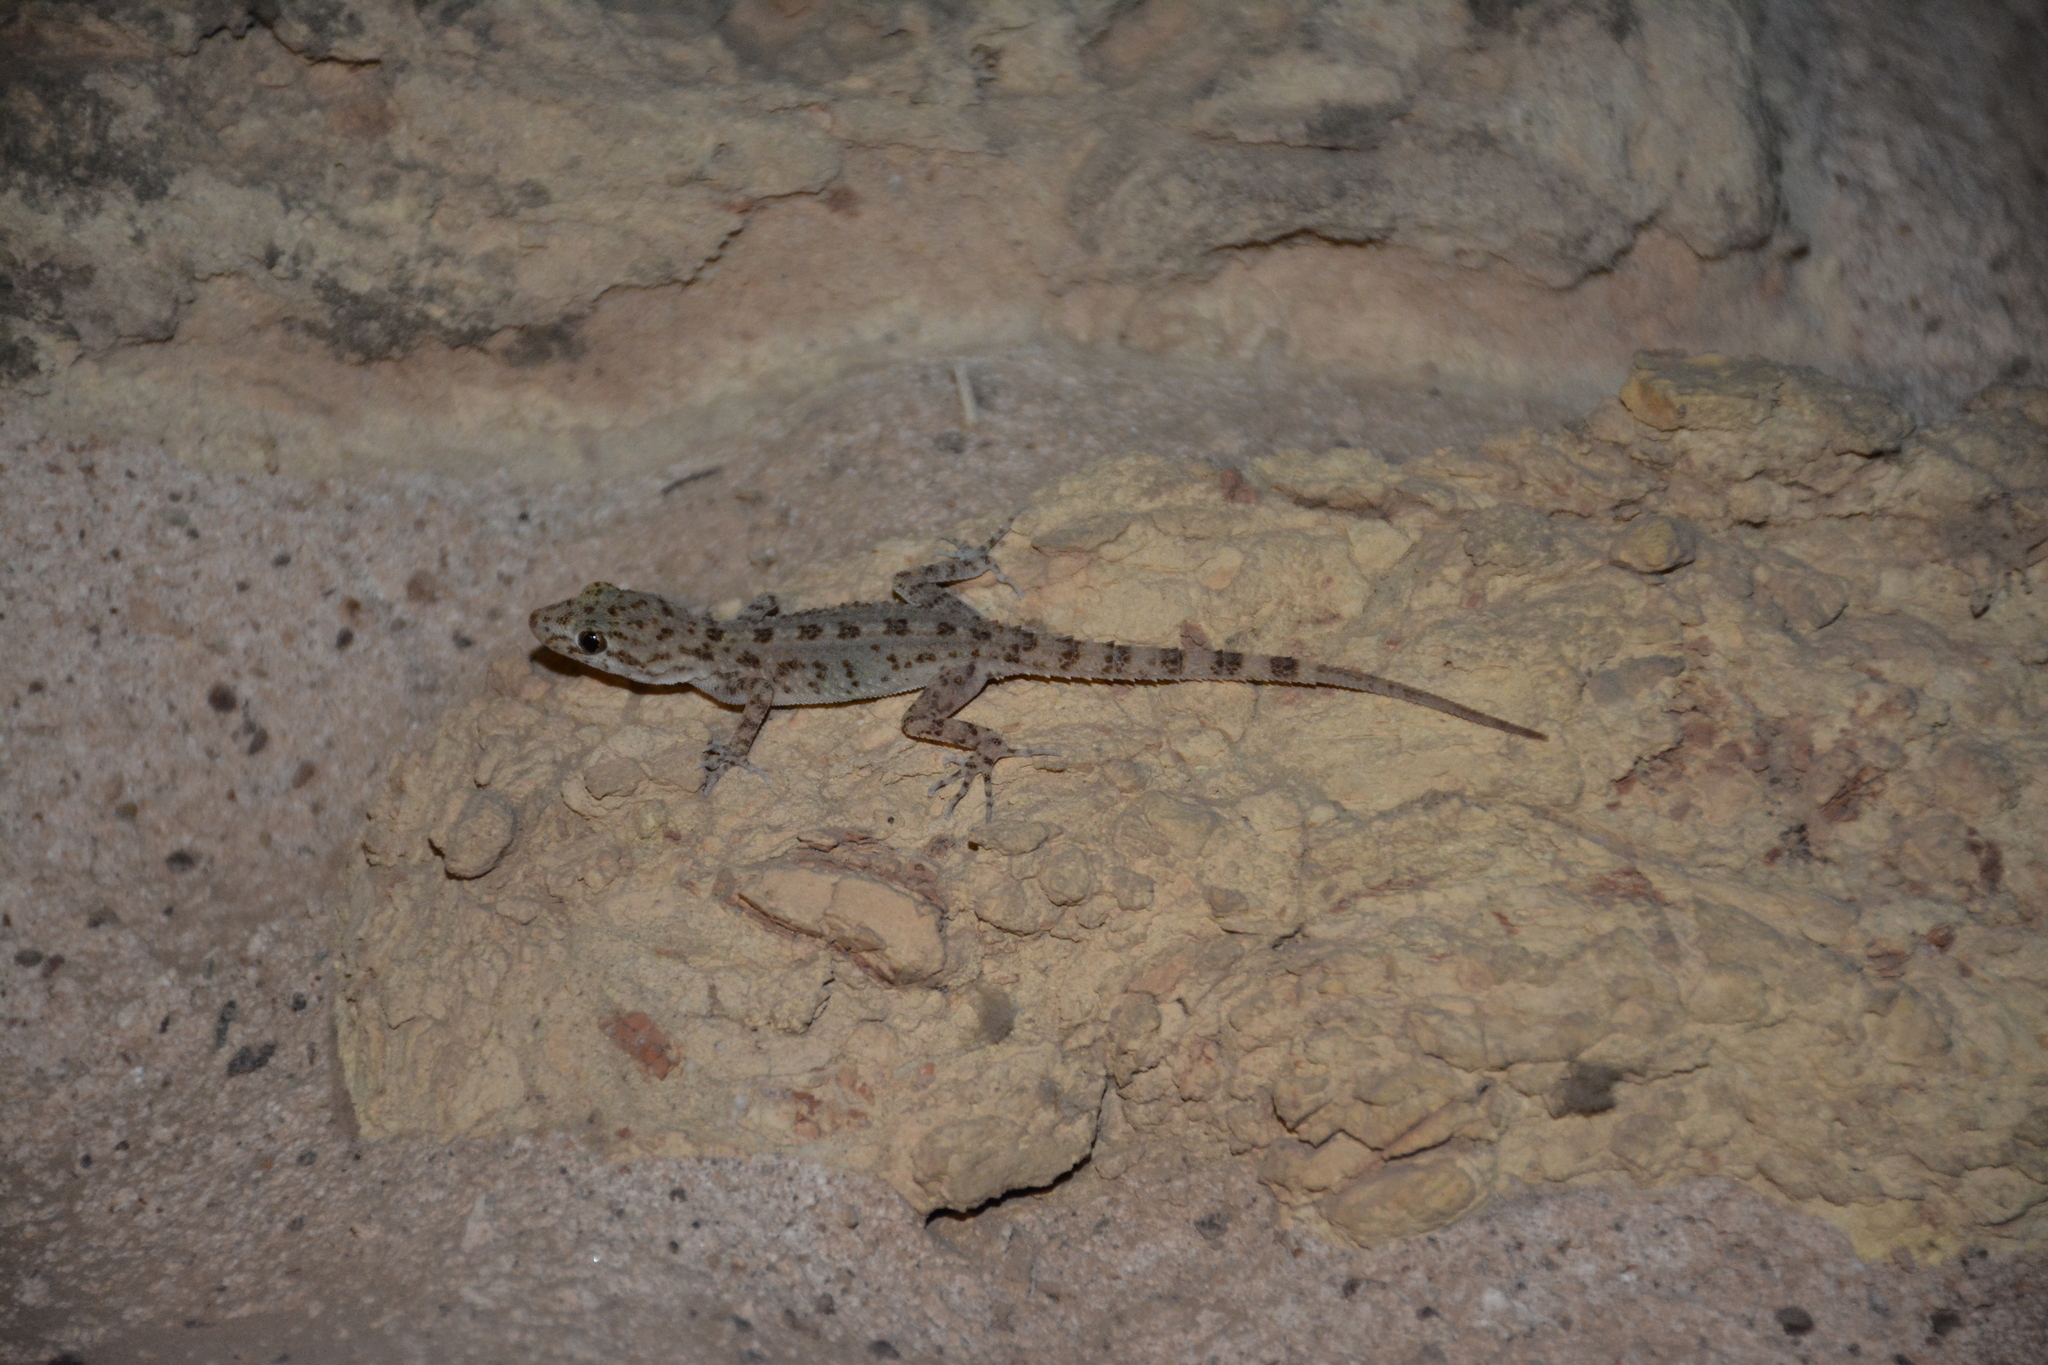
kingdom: Animalia
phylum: Chordata
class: Squamata
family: Gekkonidae
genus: Cyrtopodion
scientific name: Cyrtopodion scabrum
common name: Rough-tailed gecko
